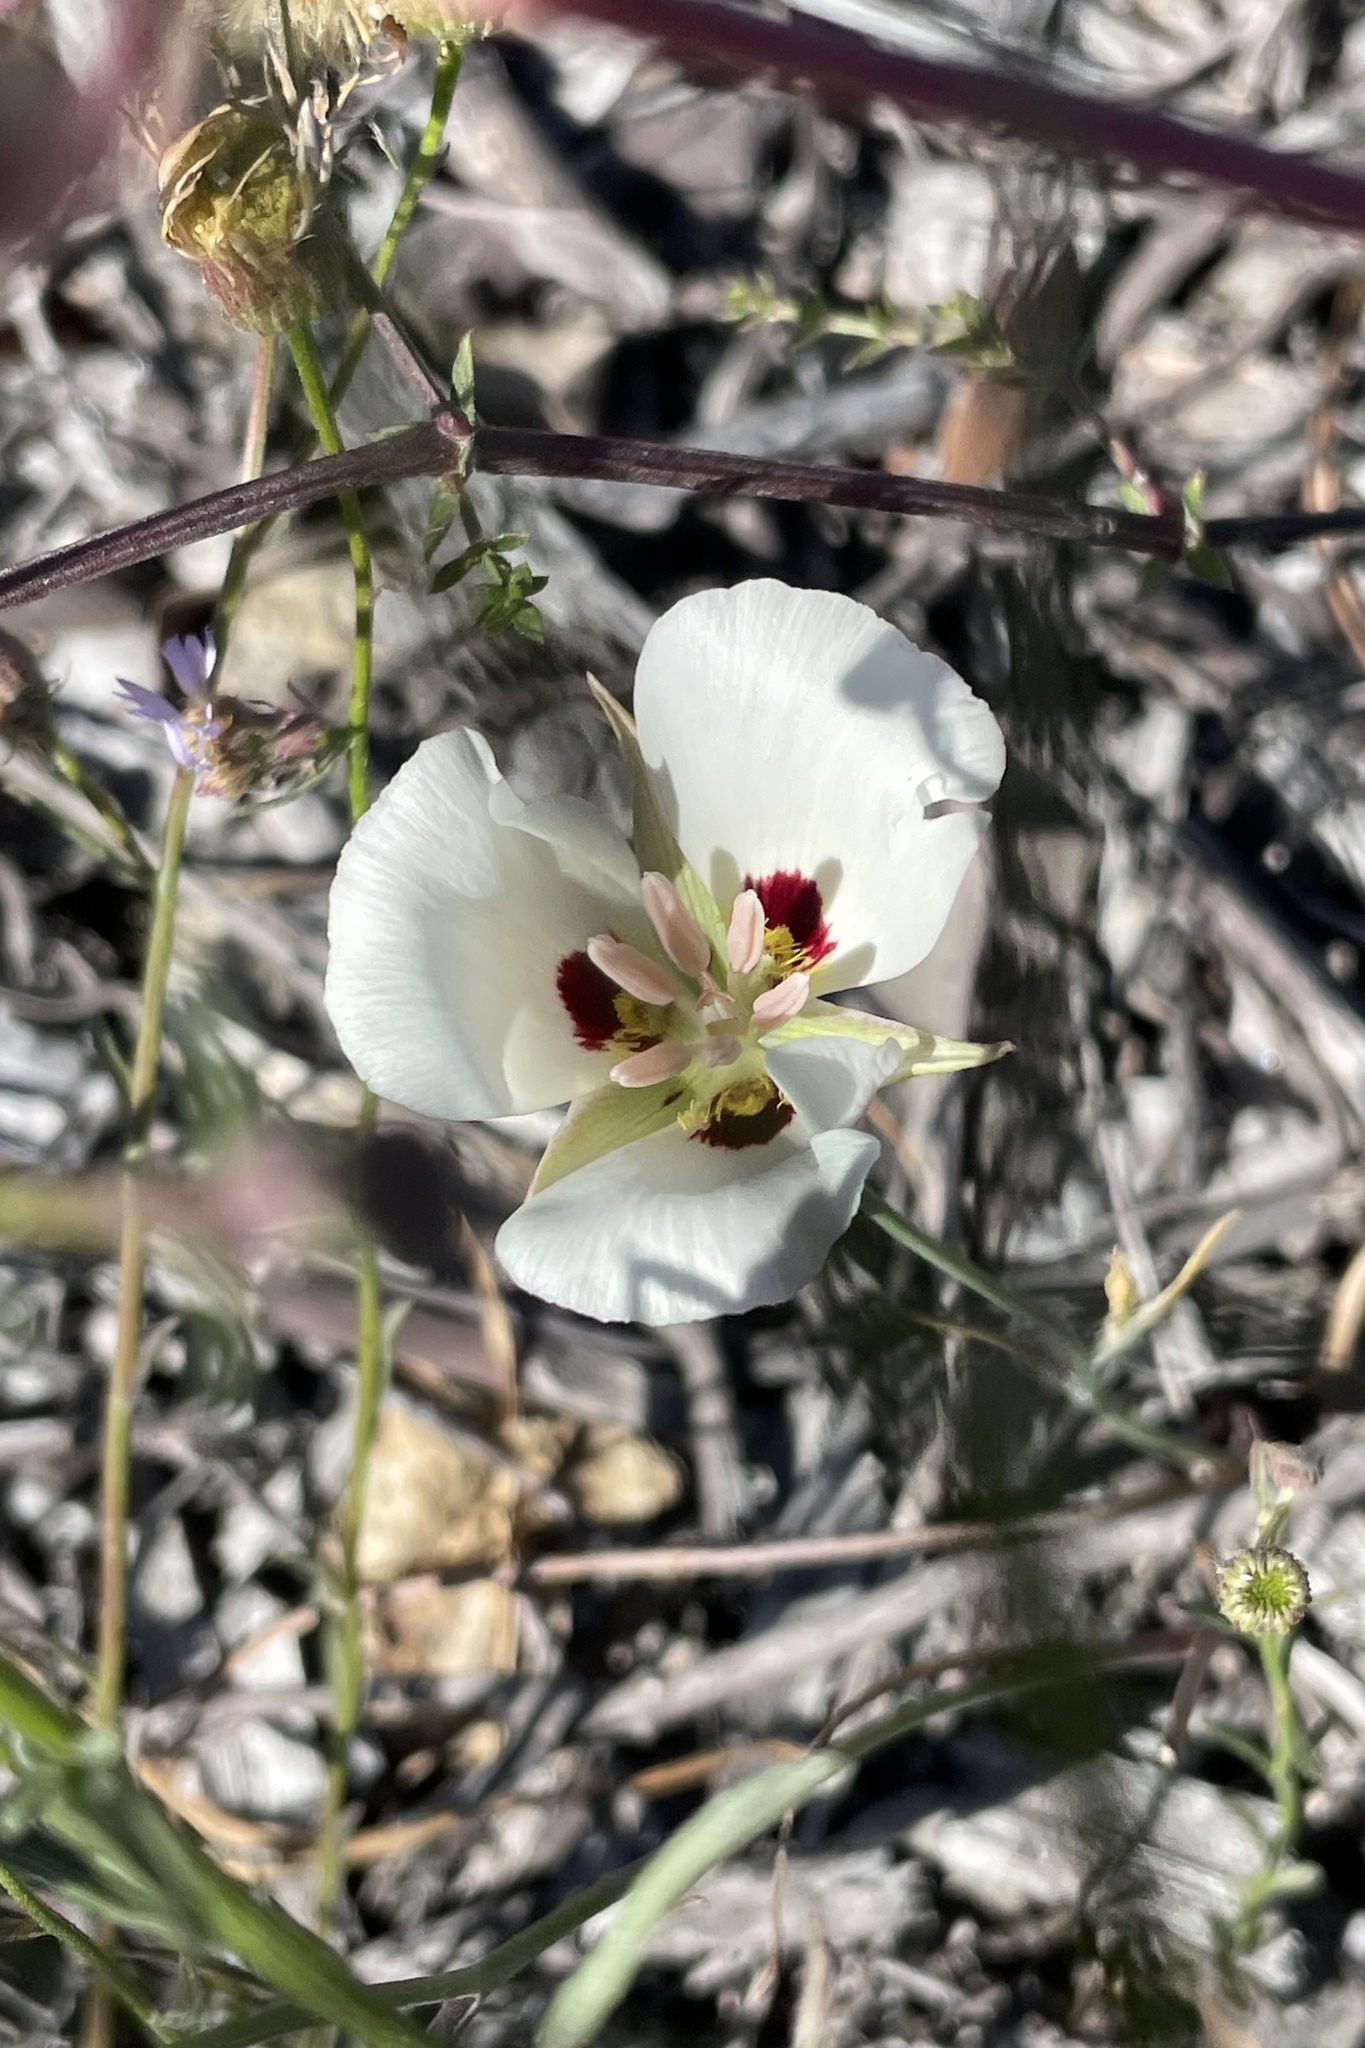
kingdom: Plantae
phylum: Tracheophyta
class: Liliopsida
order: Liliales
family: Liliaceae
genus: Calochortus
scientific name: Calochortus dunnii
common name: Dunn's mariposa-lily
